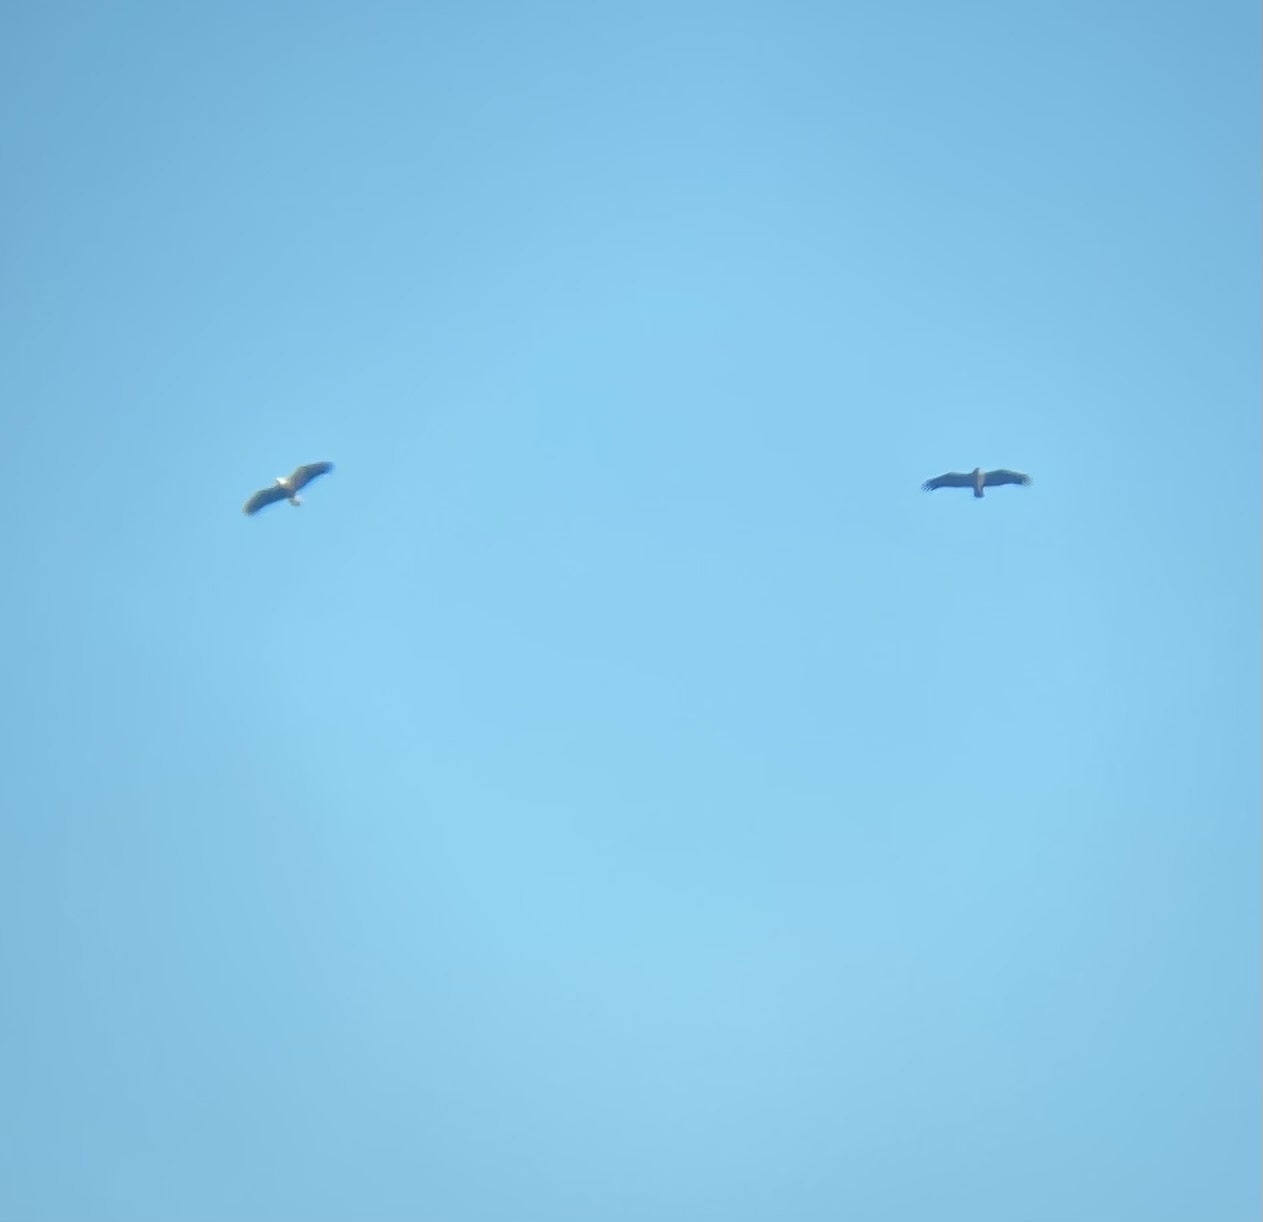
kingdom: Animalia
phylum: Chordata
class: Aves
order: Accipitriformes
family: Accipitridae
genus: Haliaeetus
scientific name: Haliaeetus leucocephalus
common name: Bald eagle
